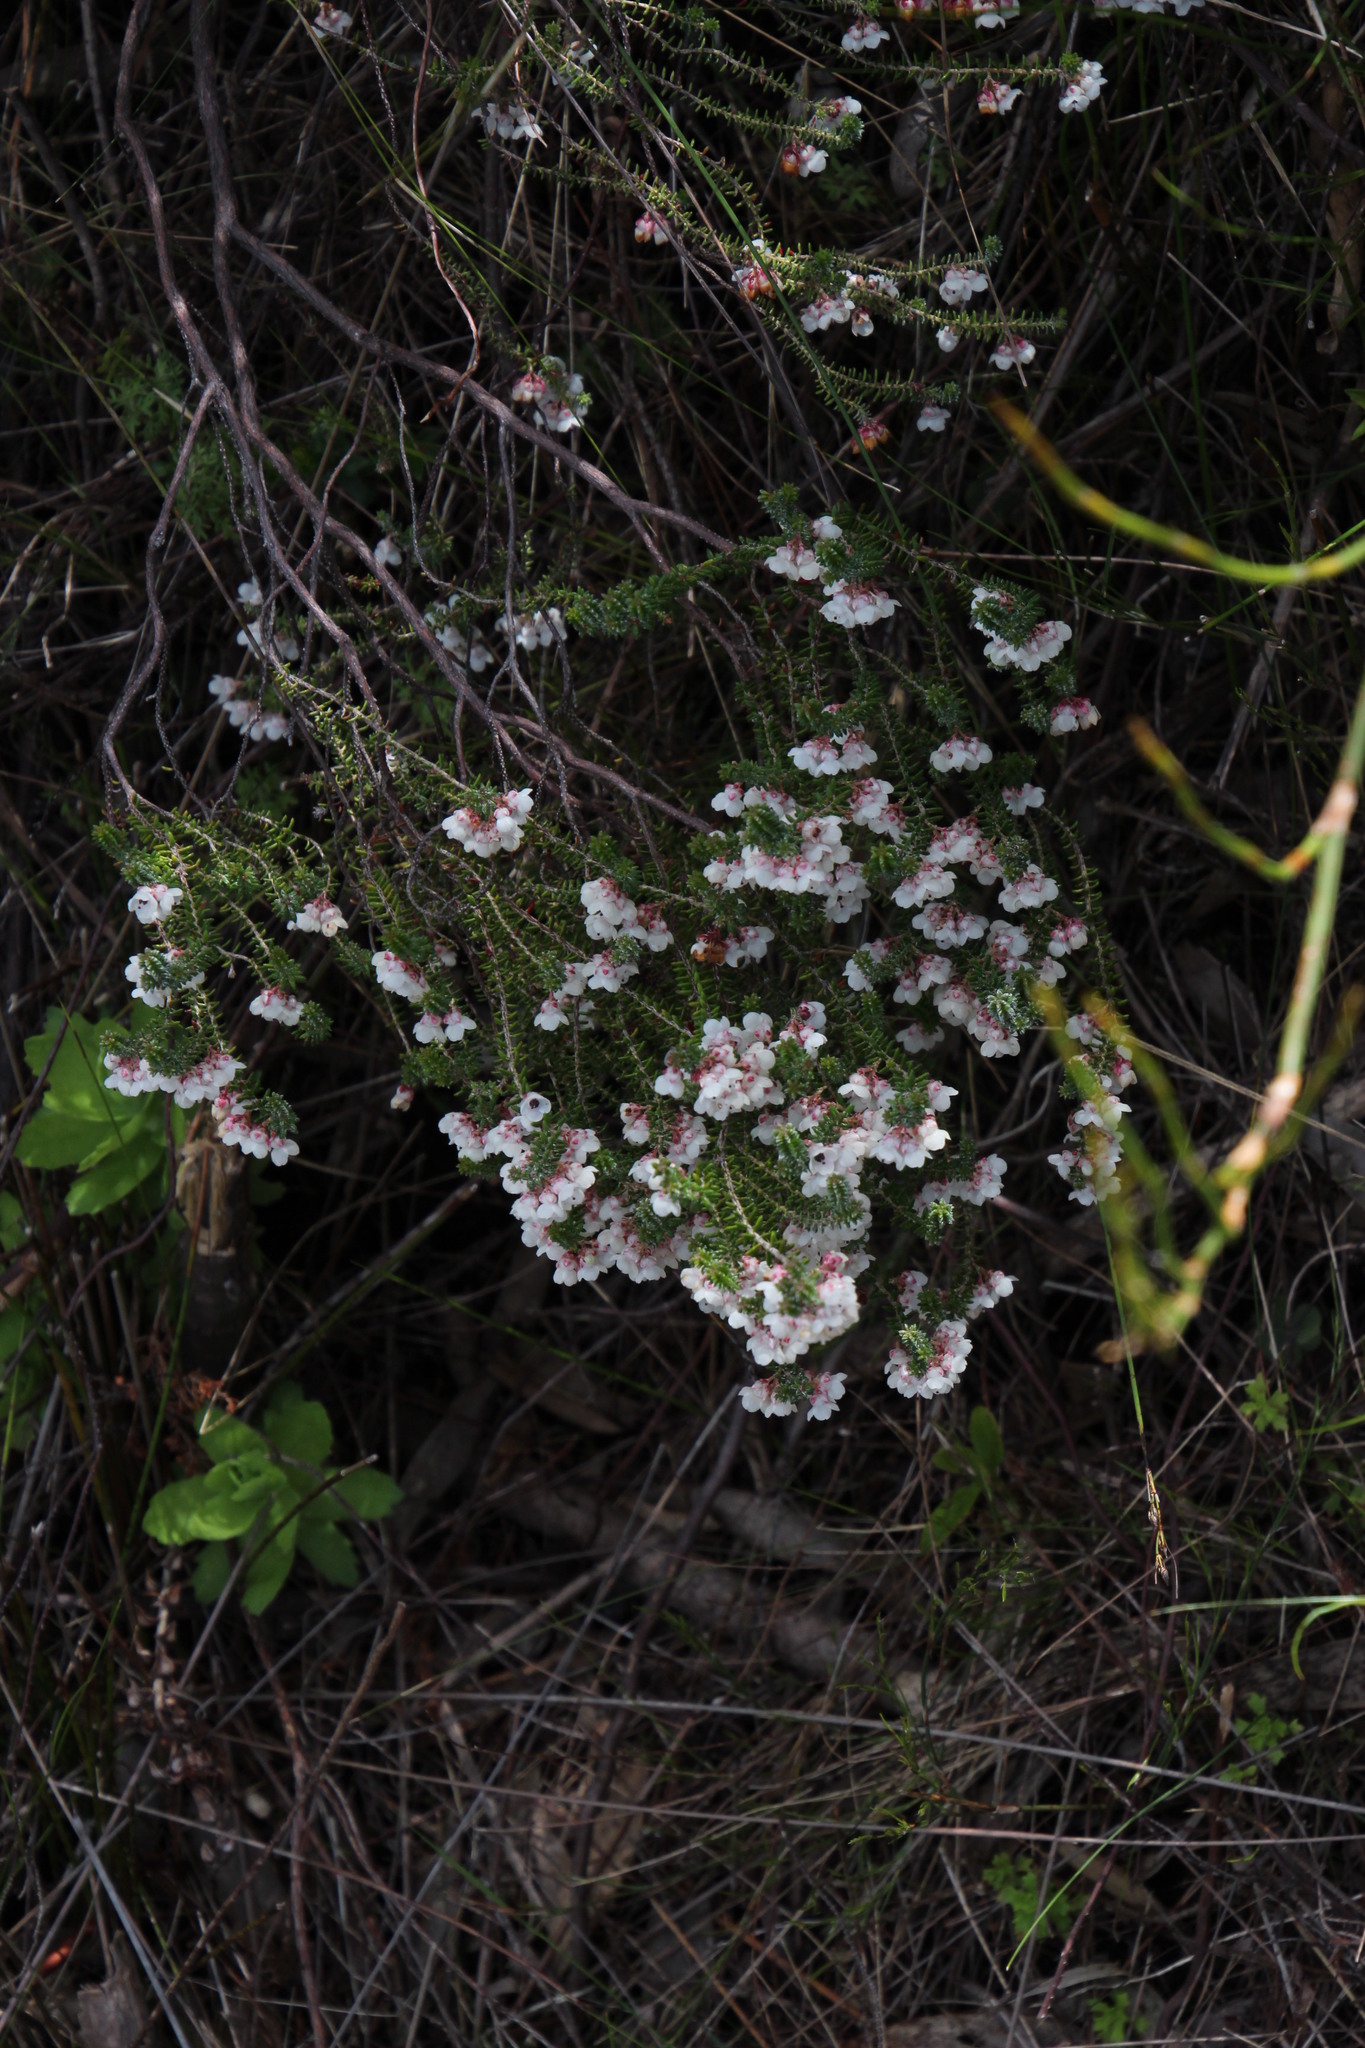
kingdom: Plantae
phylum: Tracheophyta
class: Magnoliopsida
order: Ericales
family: Ericaceae
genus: Erica
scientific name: Erica corydalis
